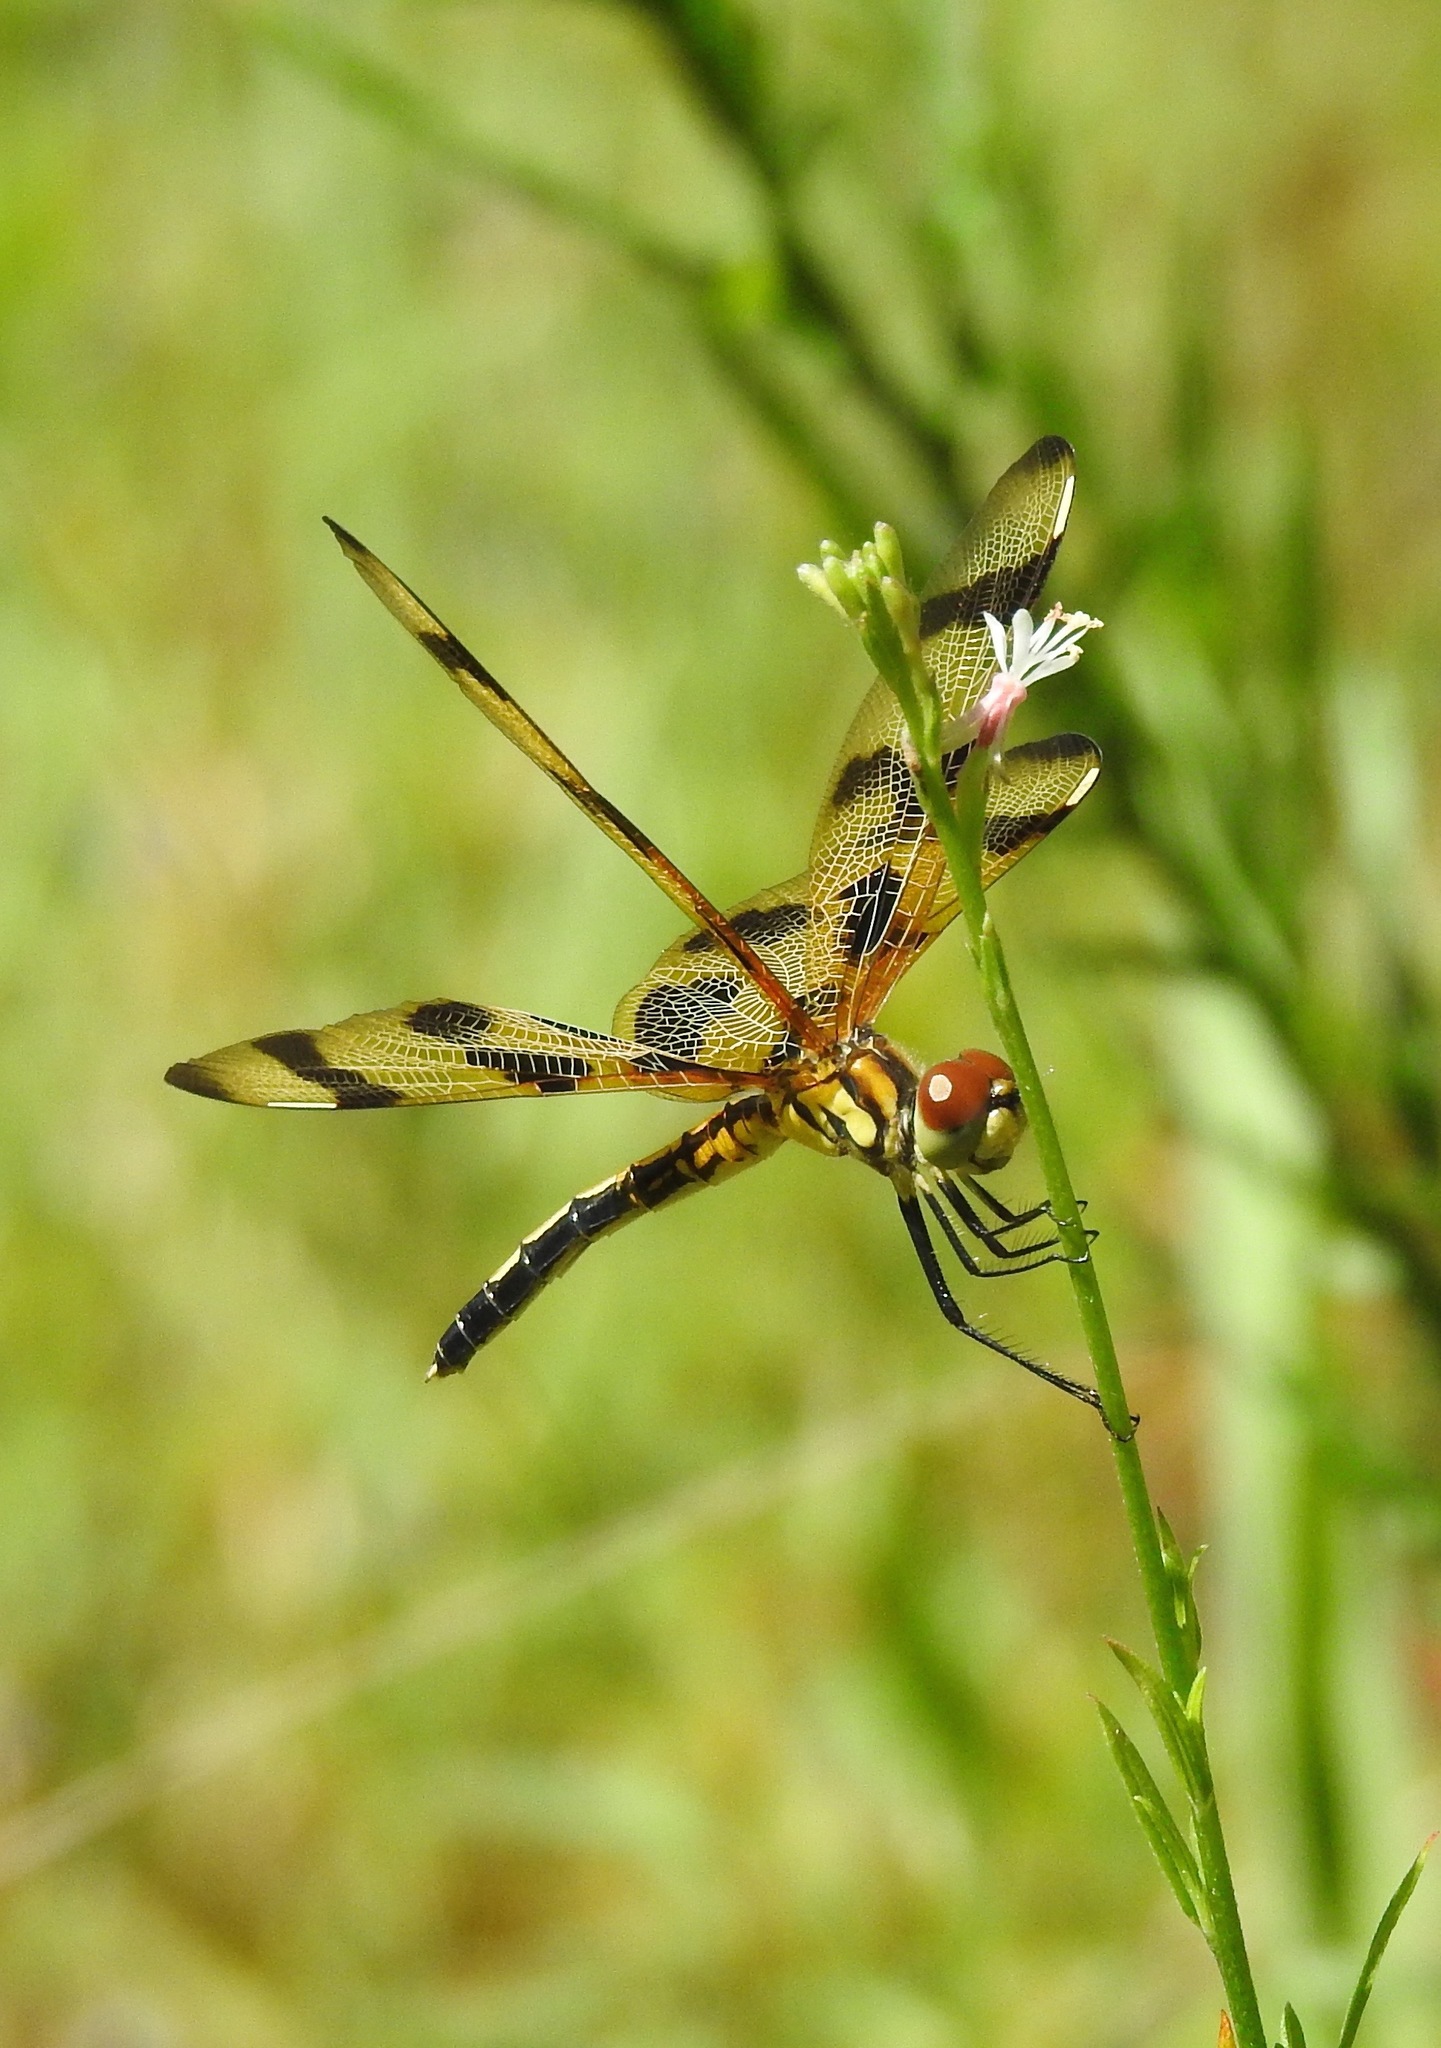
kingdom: Animalia
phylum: Arthropoda
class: Insecta
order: Odonata
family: Libellulidae
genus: Celithemis
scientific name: Celithemis eponina
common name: Halloween pennant
